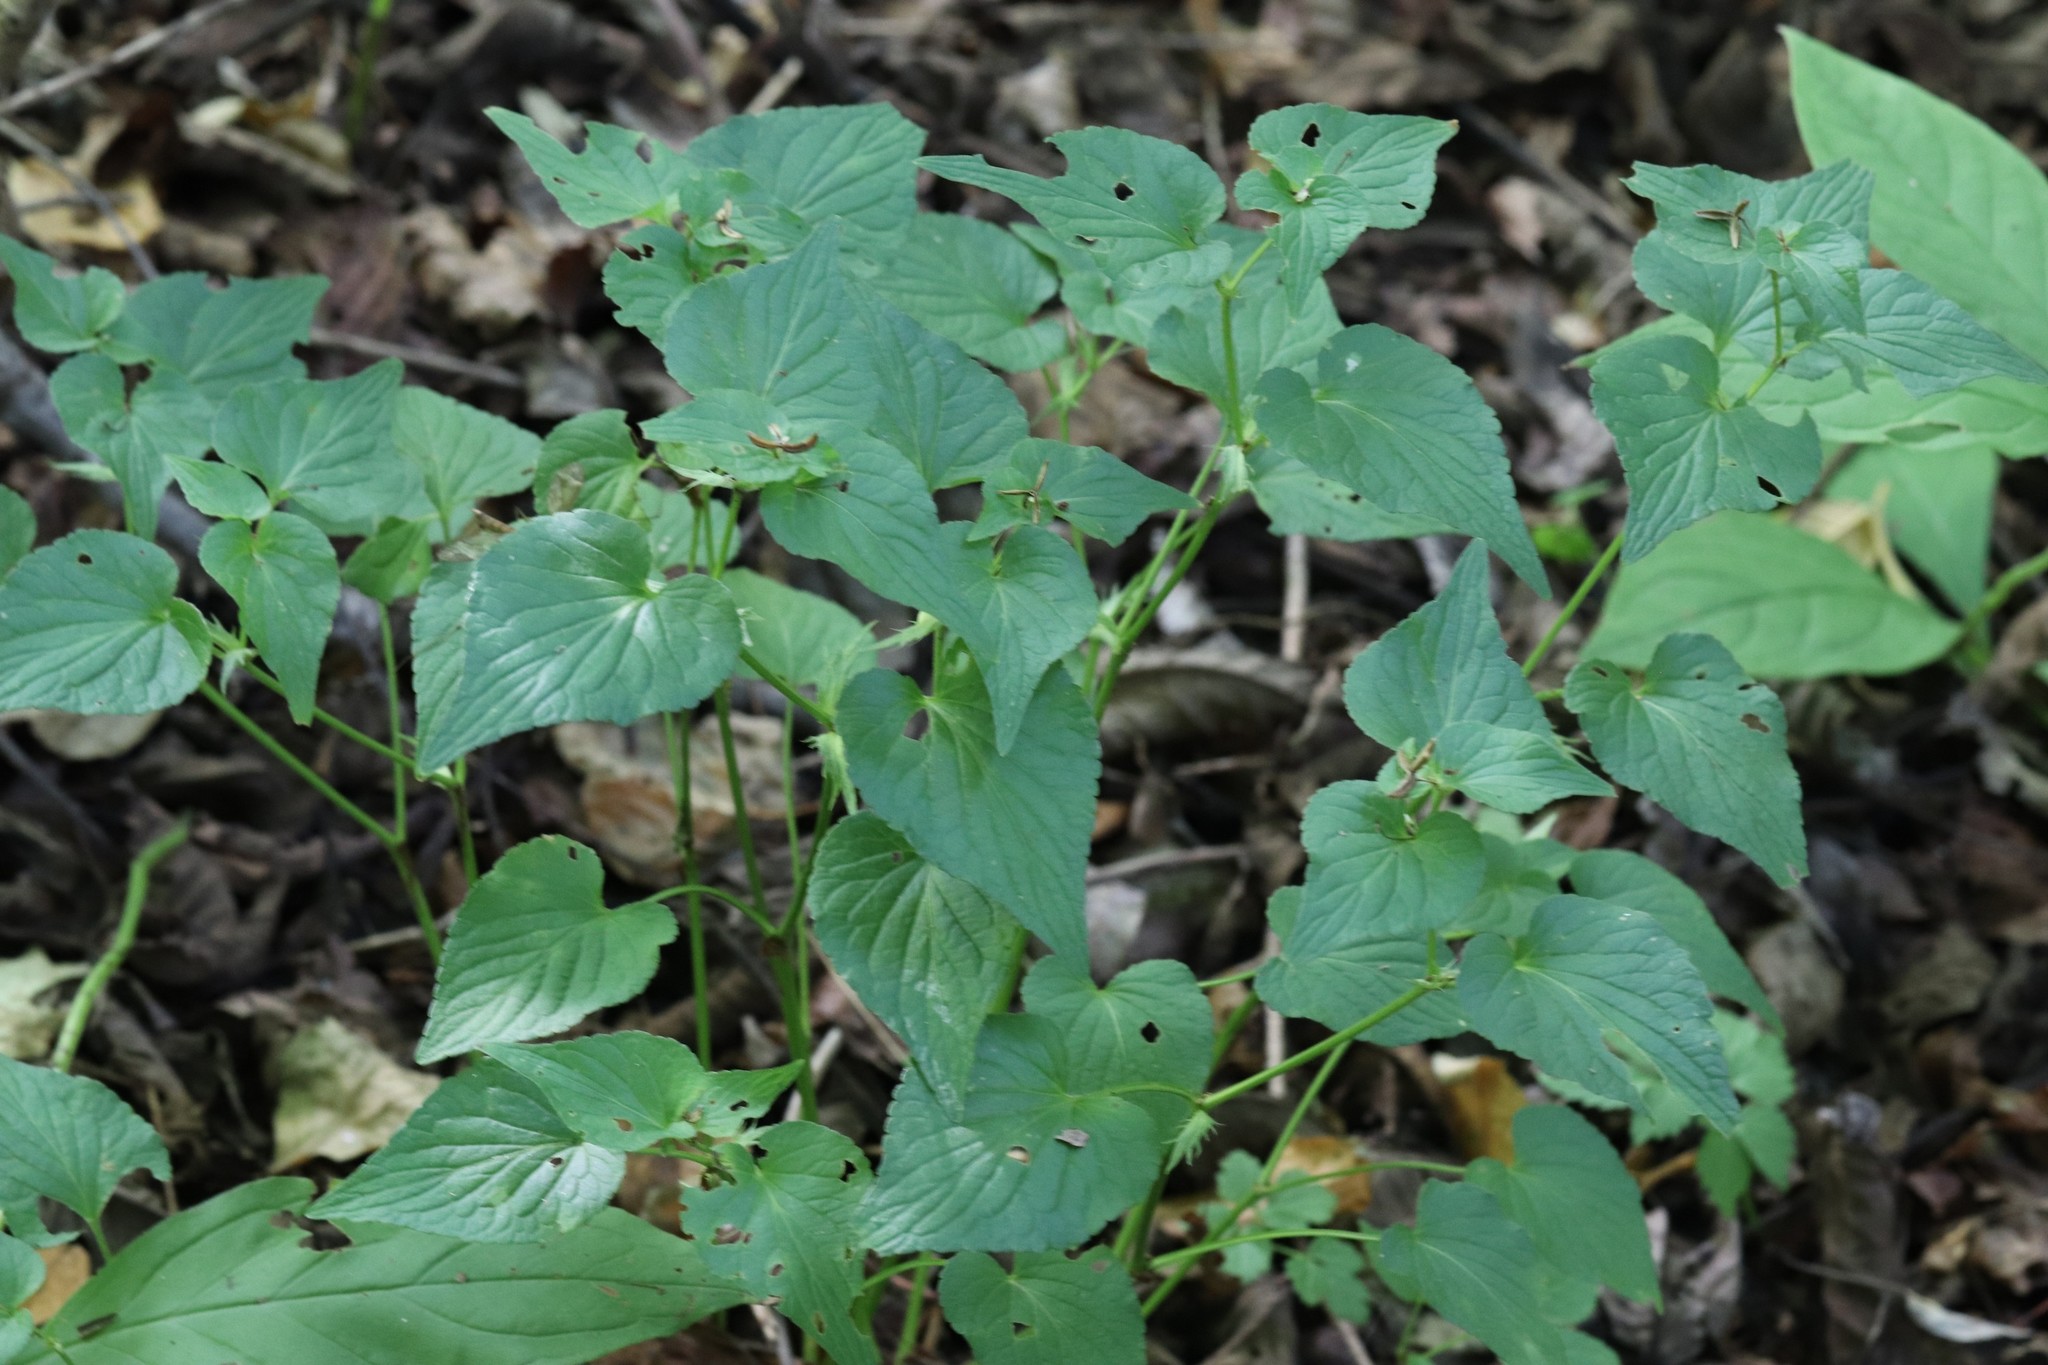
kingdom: Plantae
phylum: Tracheophyta
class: Magnoliopsida
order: Malpighiales
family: Violaceae
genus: Viola
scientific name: Viola acuminata
